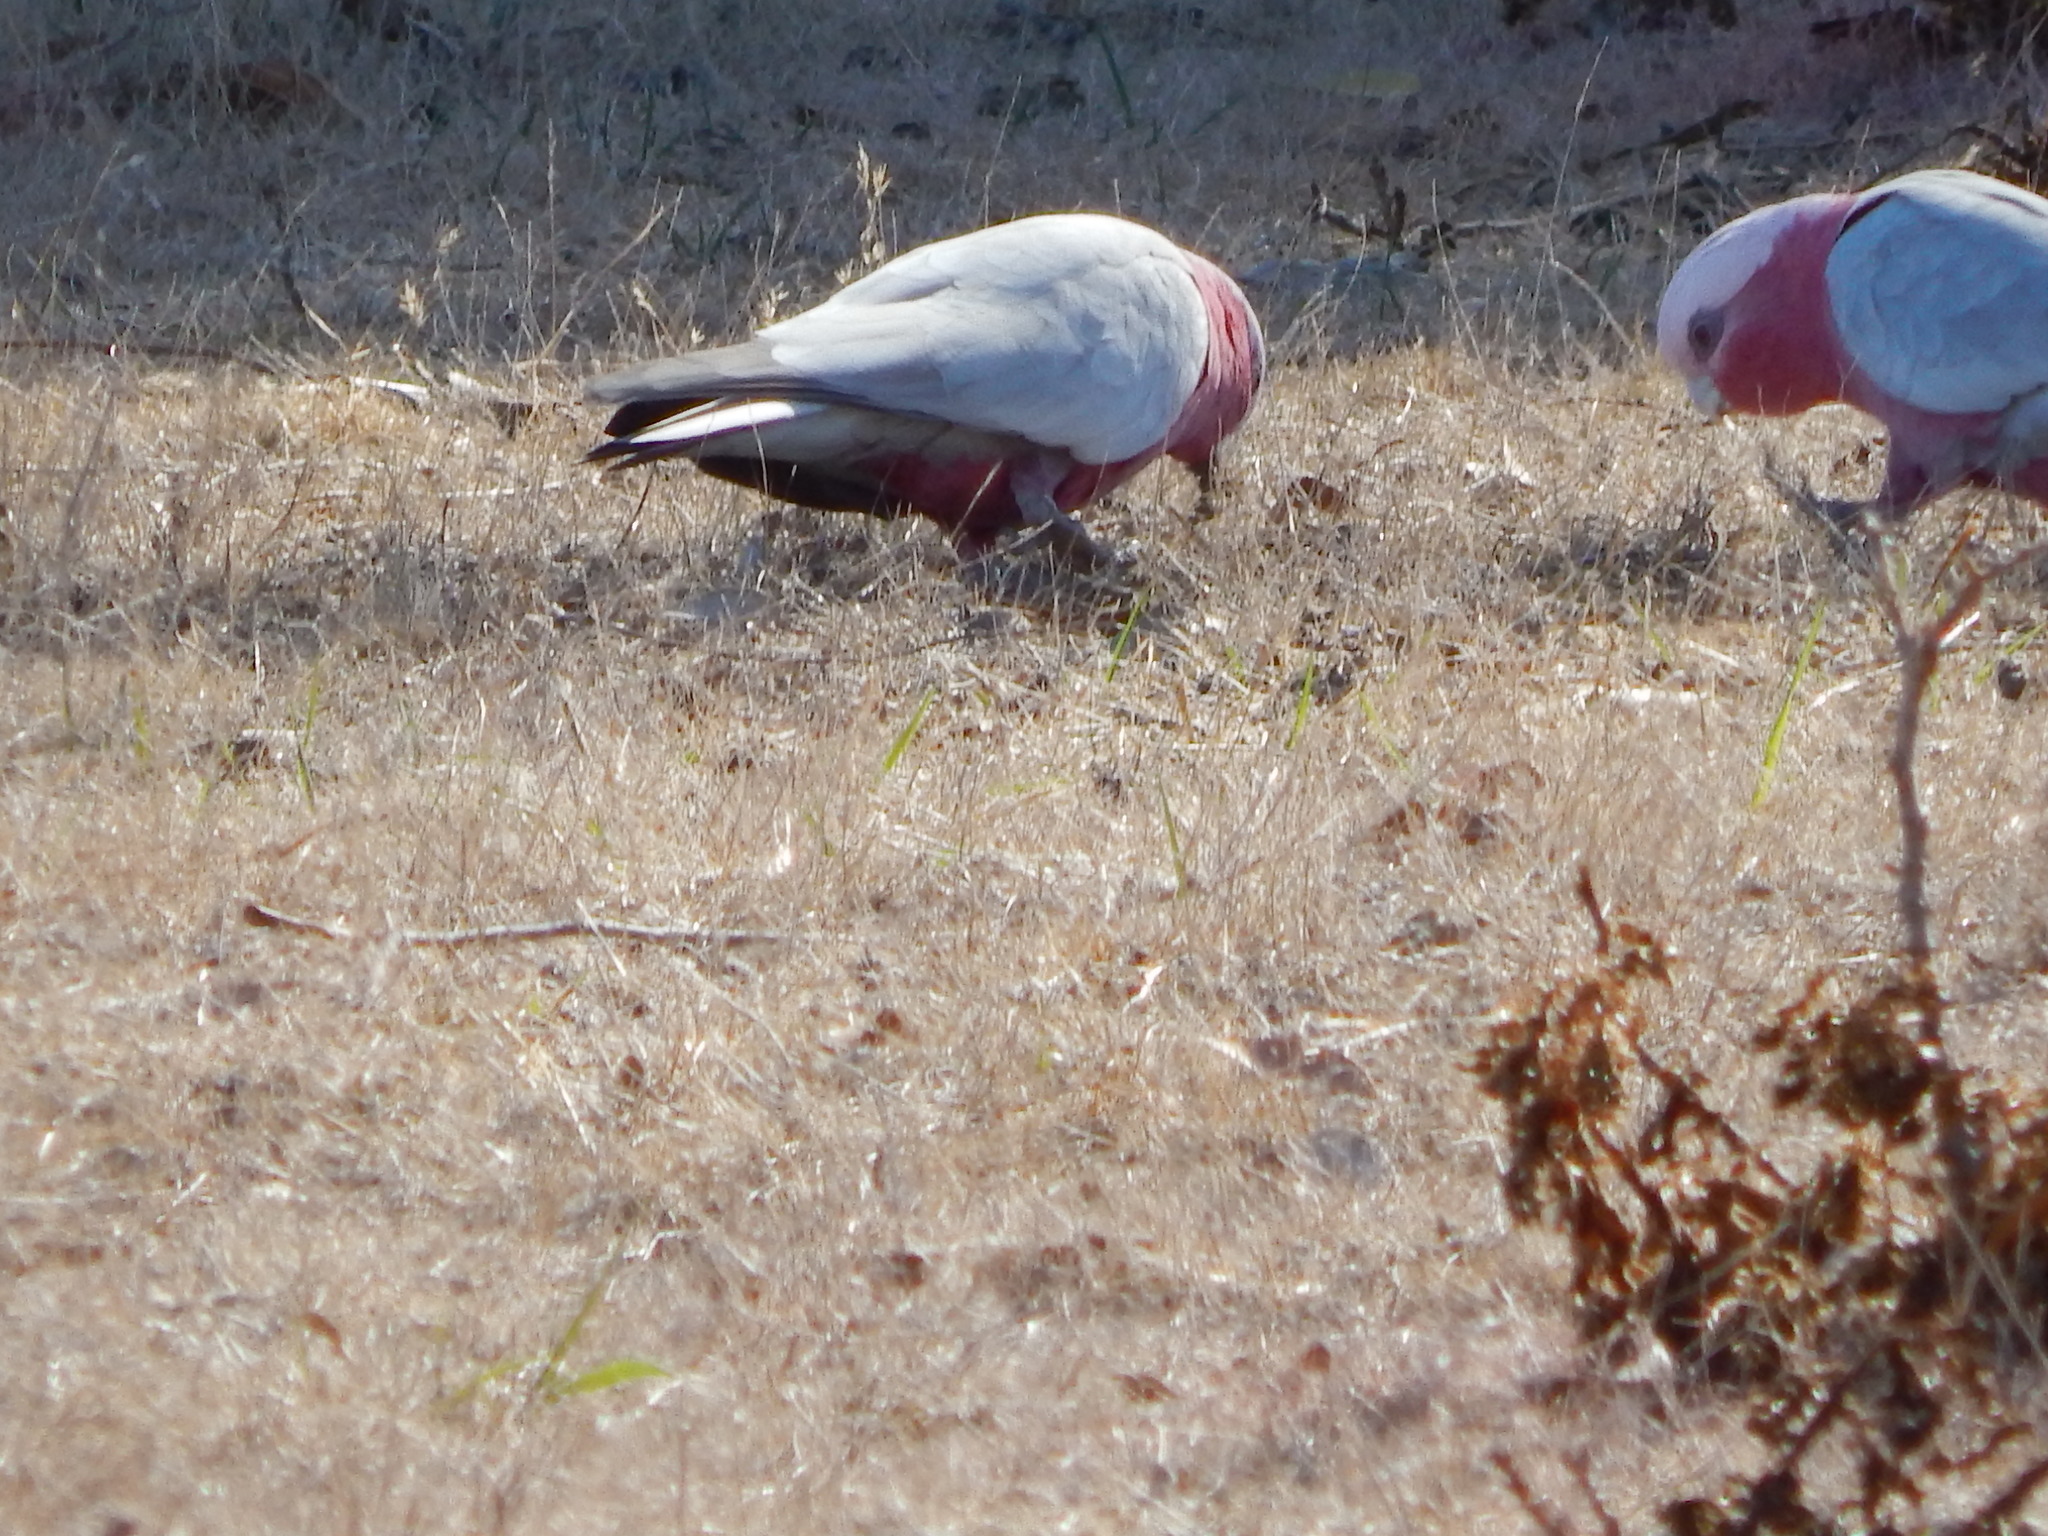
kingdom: Animalia
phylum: Chordata
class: Aves
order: Psittaciformes
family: Psittacidae
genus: Eolophus
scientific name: Eolophus roseicapilla
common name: Galah
